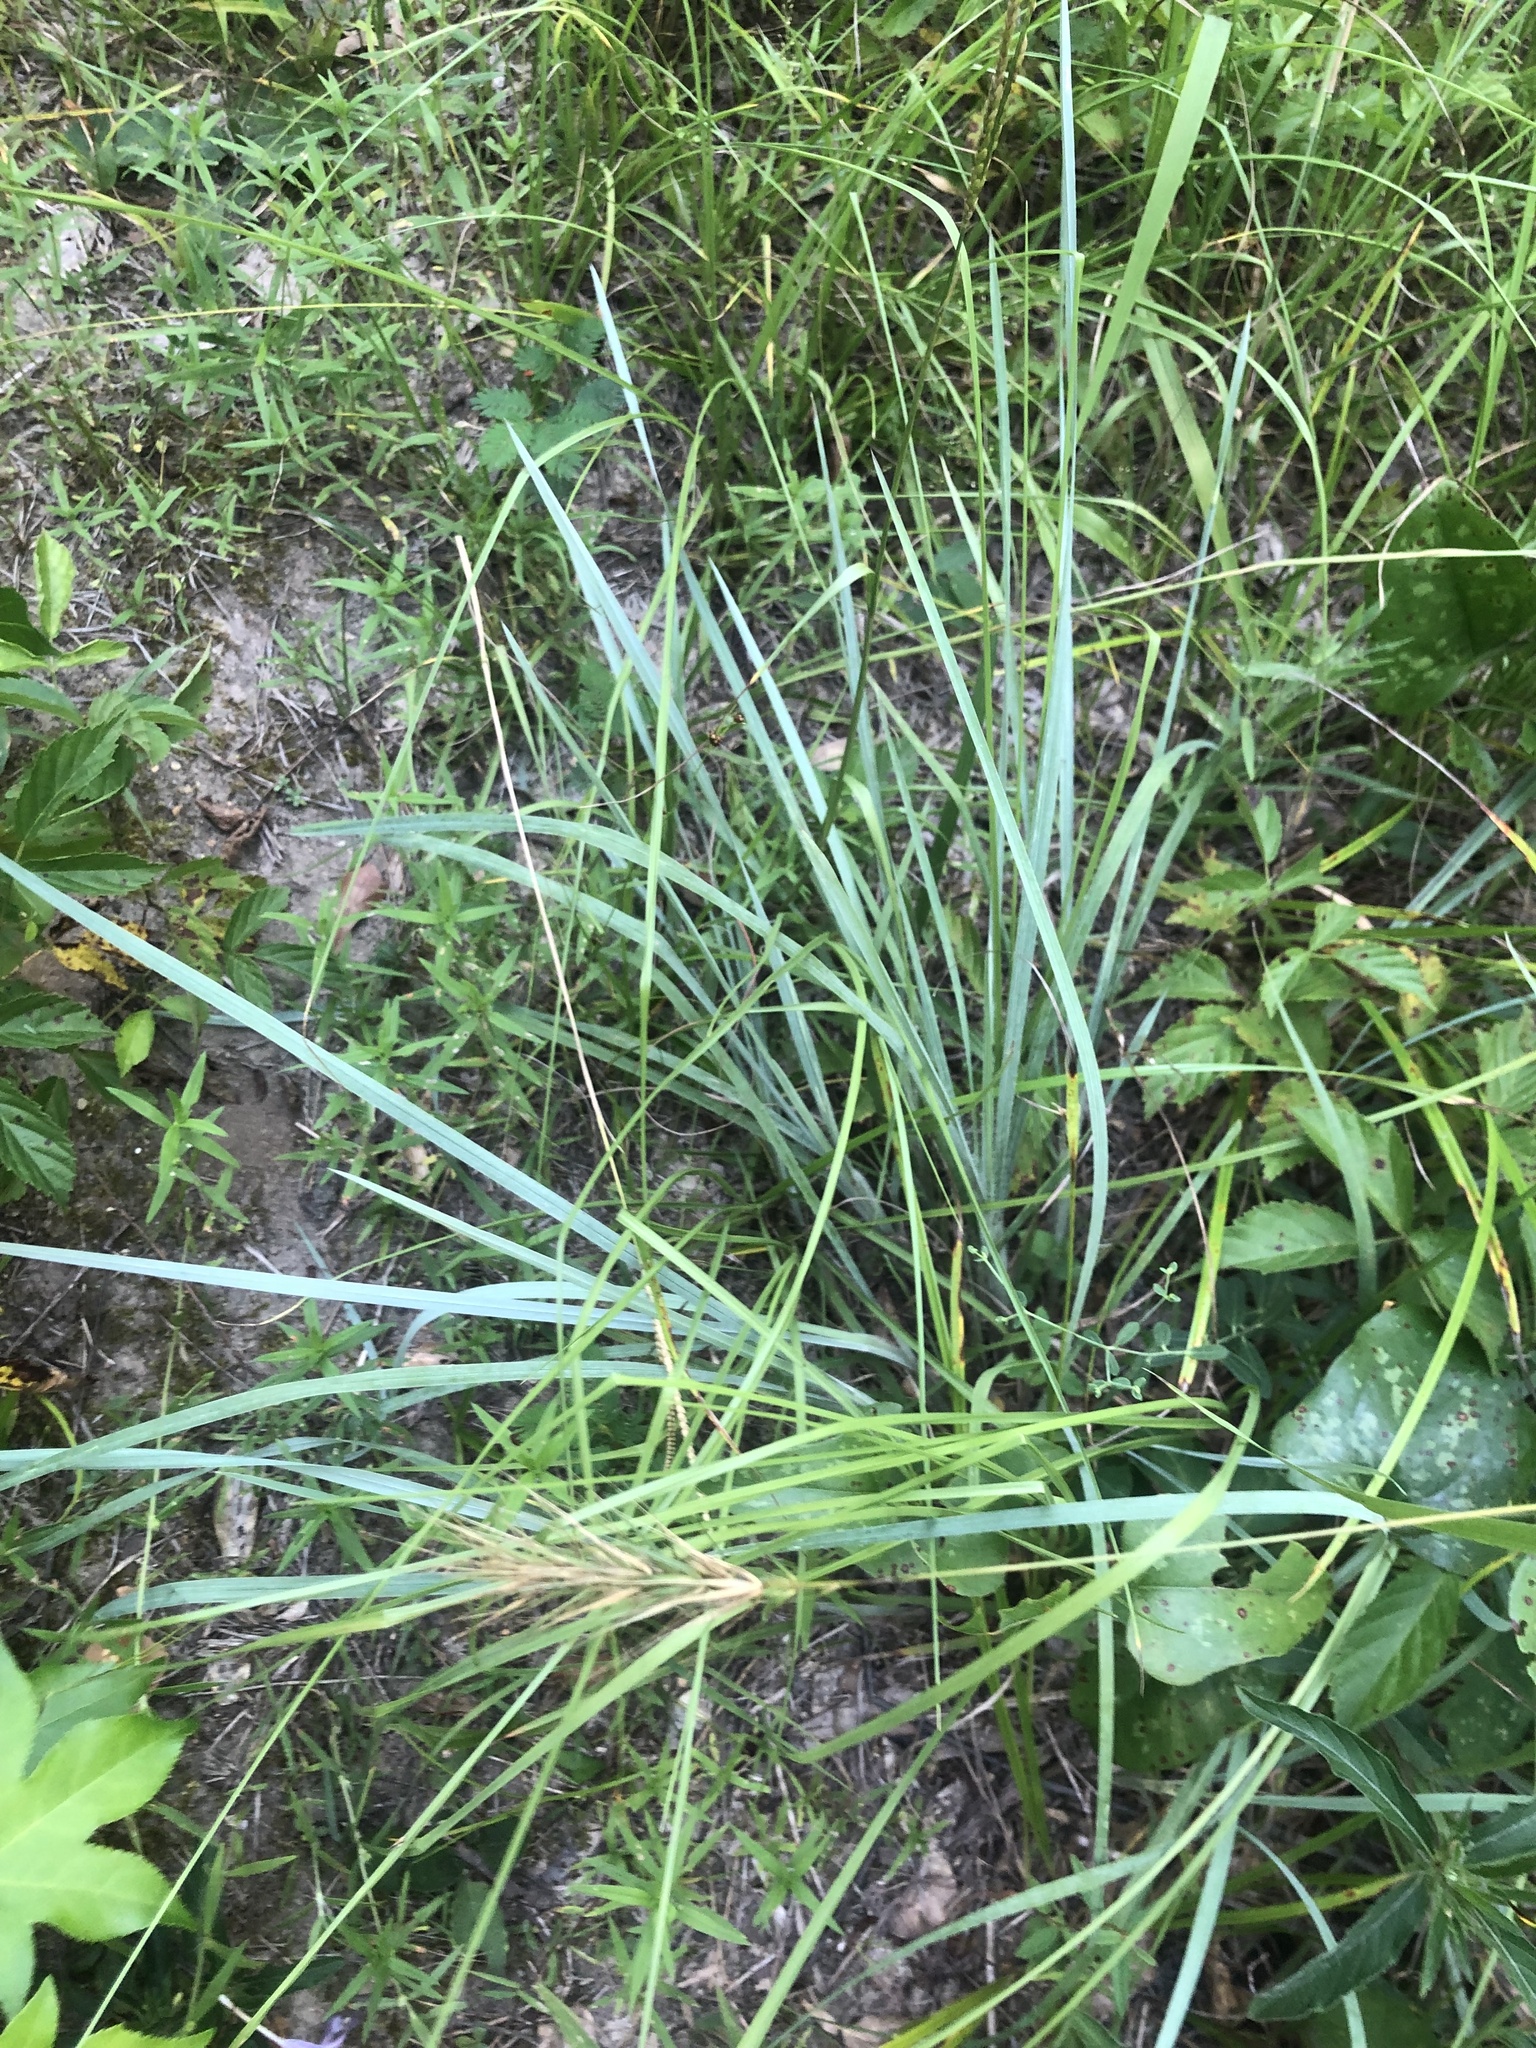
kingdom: Plantae
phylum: Tracheophyta
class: Liliopsida
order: Poales
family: Poaceae
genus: Paspalum
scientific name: Paspalum floridanum
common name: Florida paspalum
